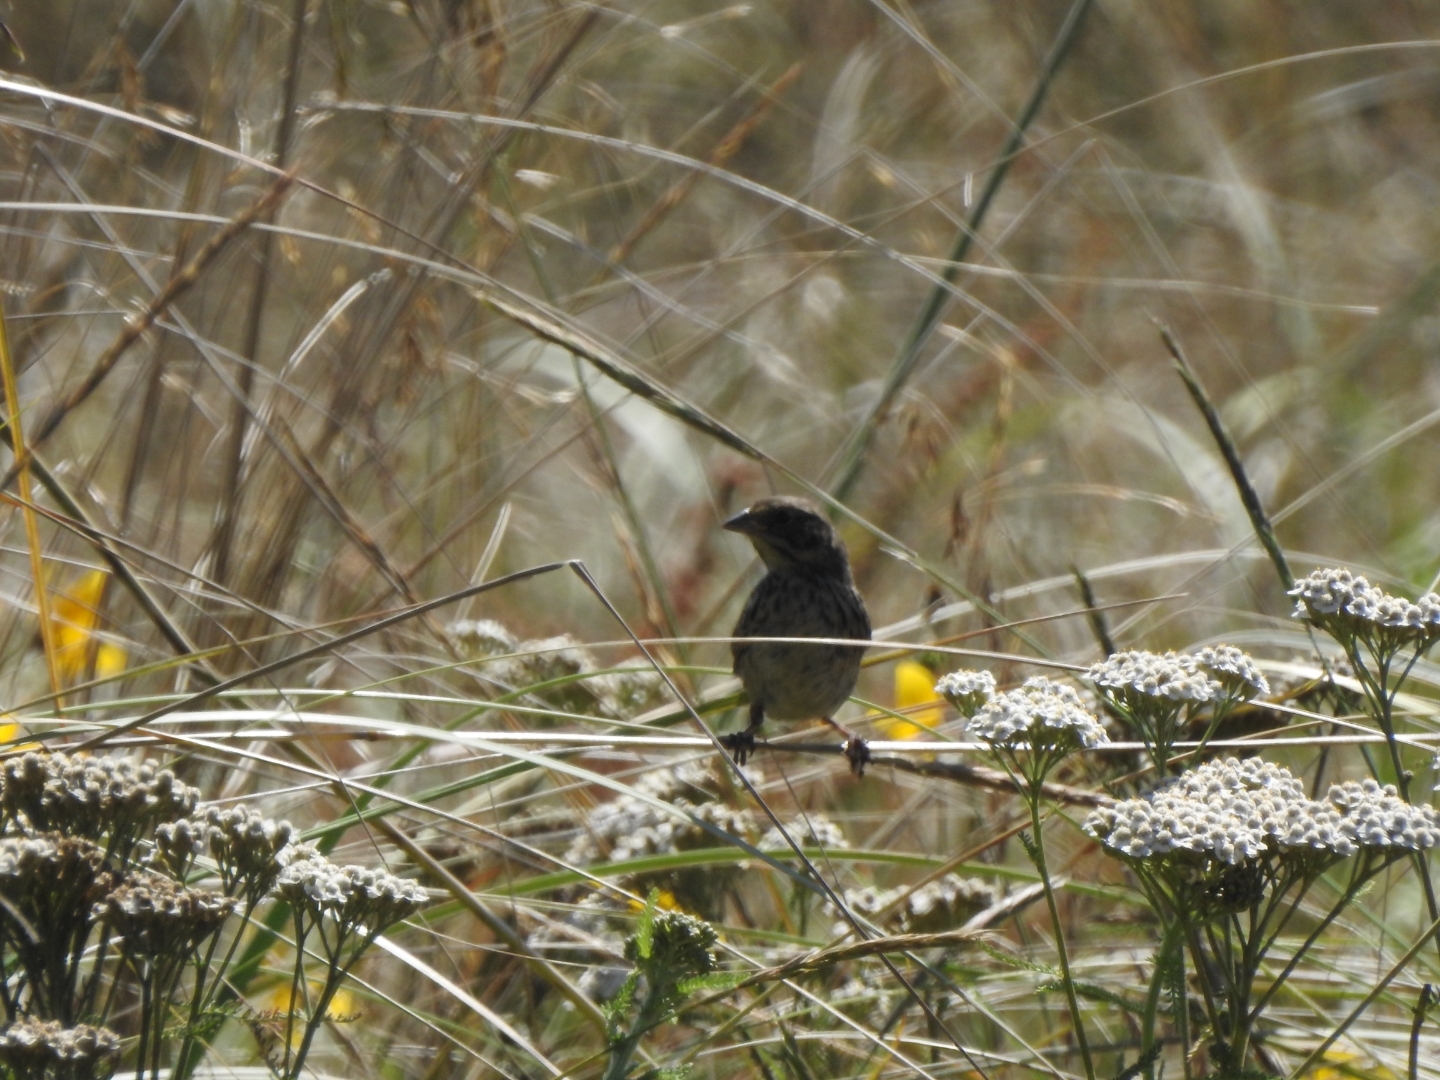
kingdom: Animalia
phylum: Chordata
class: Aves
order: Passeriformes
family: Passerellidae
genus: Passerculus
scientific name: Passerculus sandwichensis
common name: Savannah sparrow
